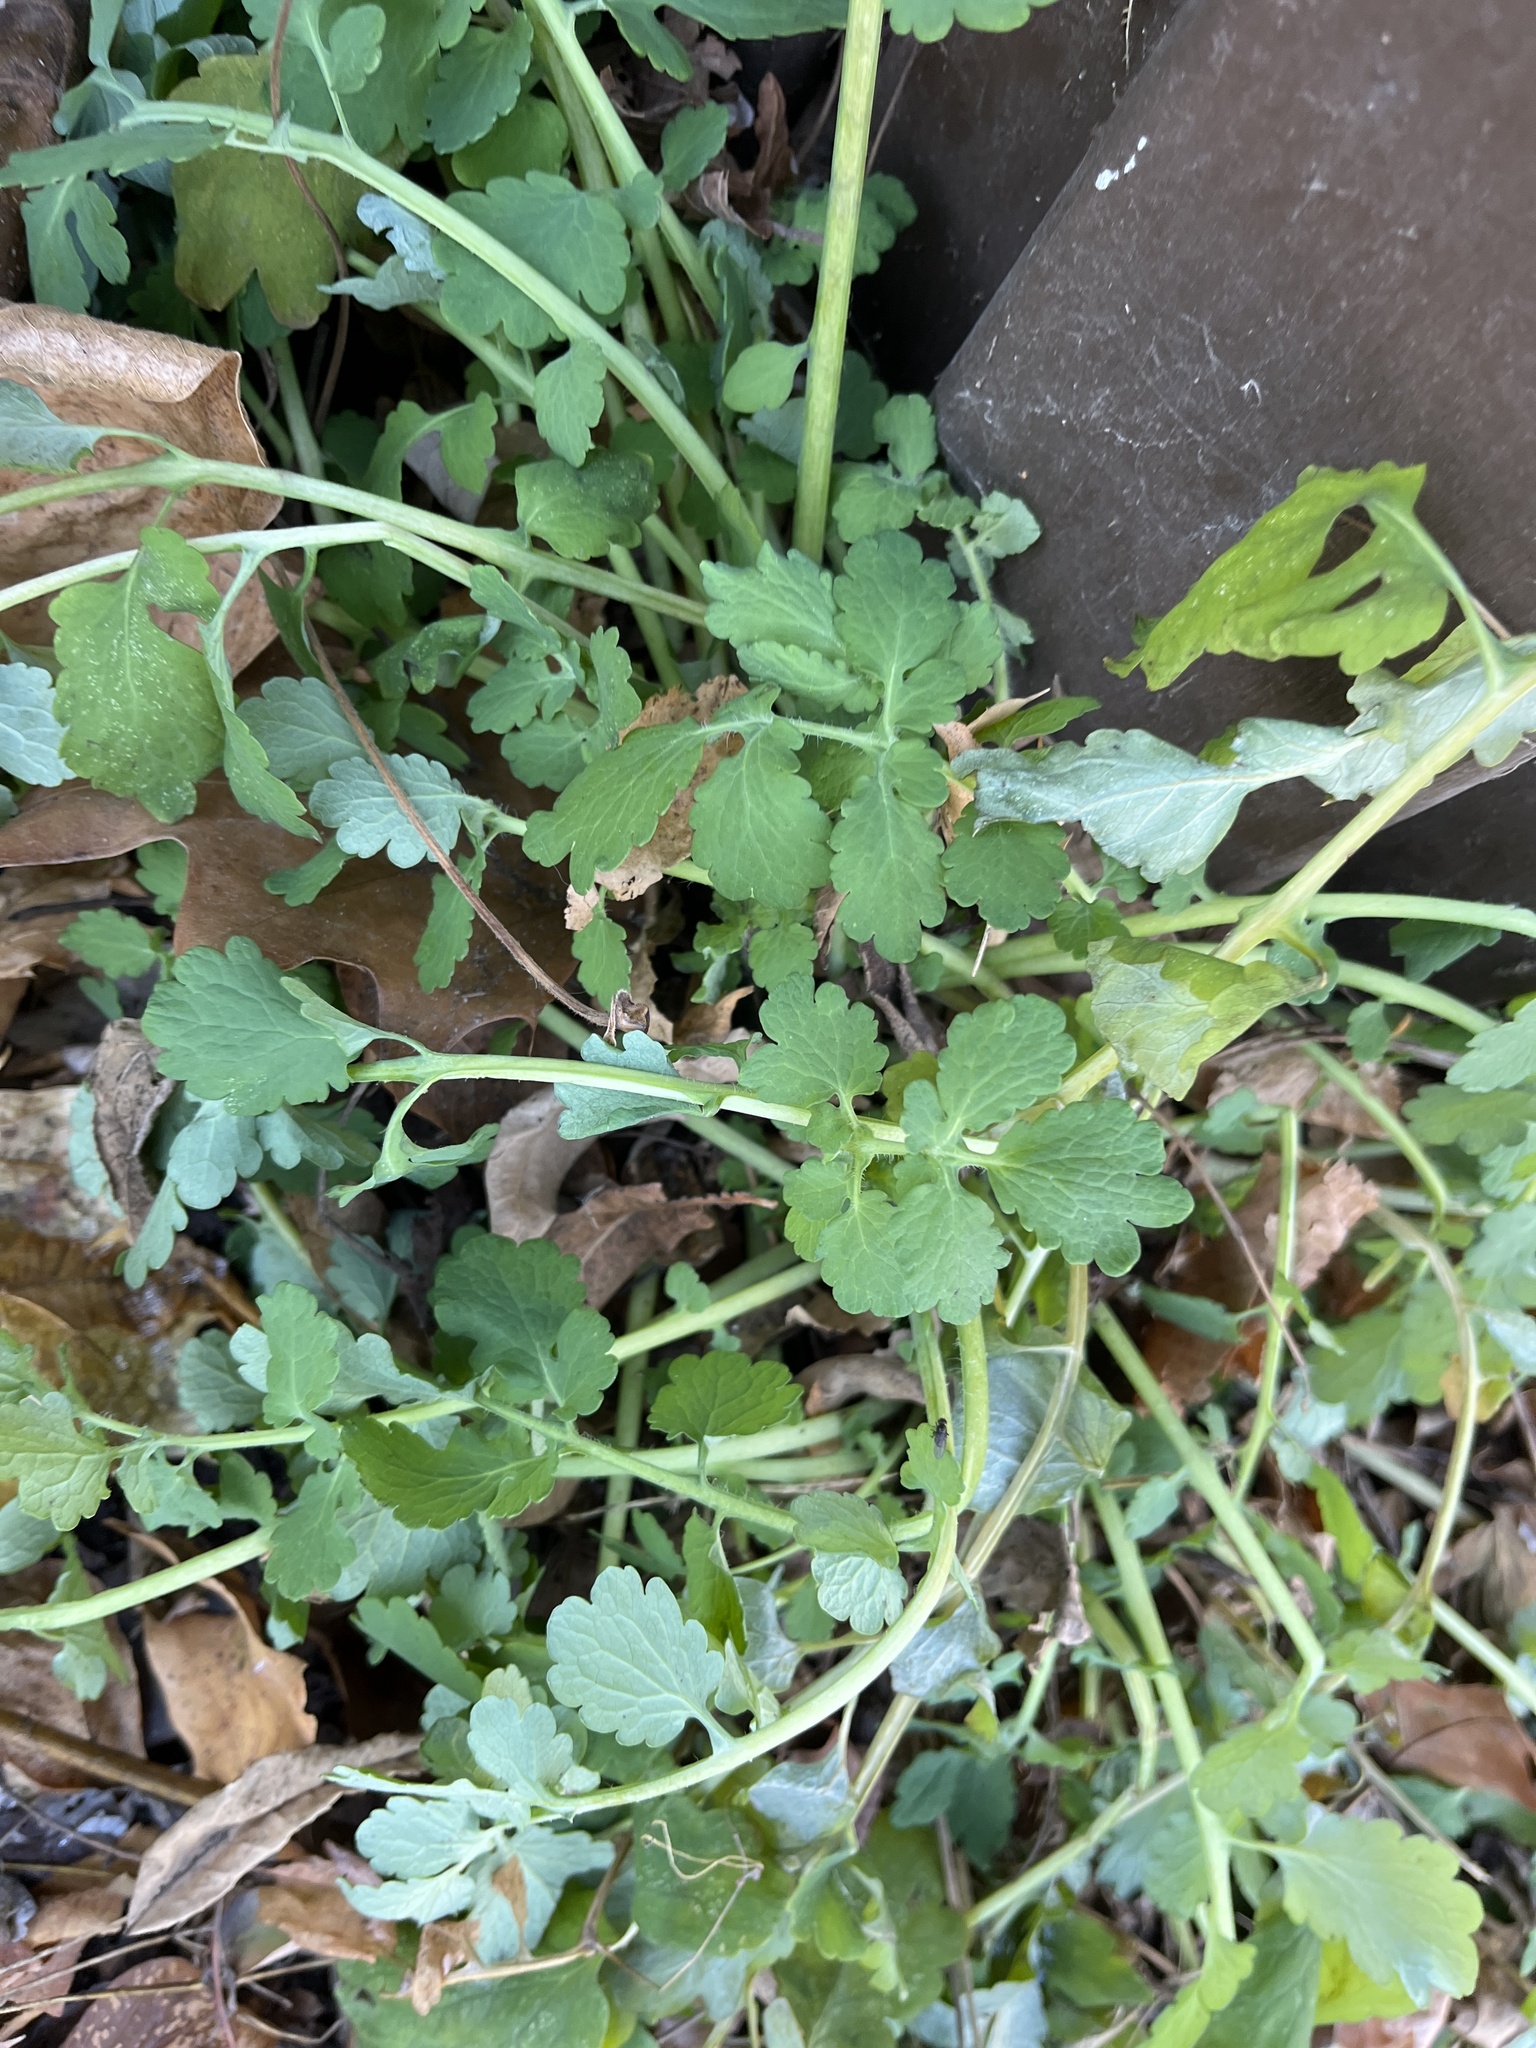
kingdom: Plantae
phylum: Tracheophyta
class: Magnoliopsida
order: Ranunculales
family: Papaveraceae
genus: Chelidonium
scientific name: Chelidonium majus
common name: Greater celandine
